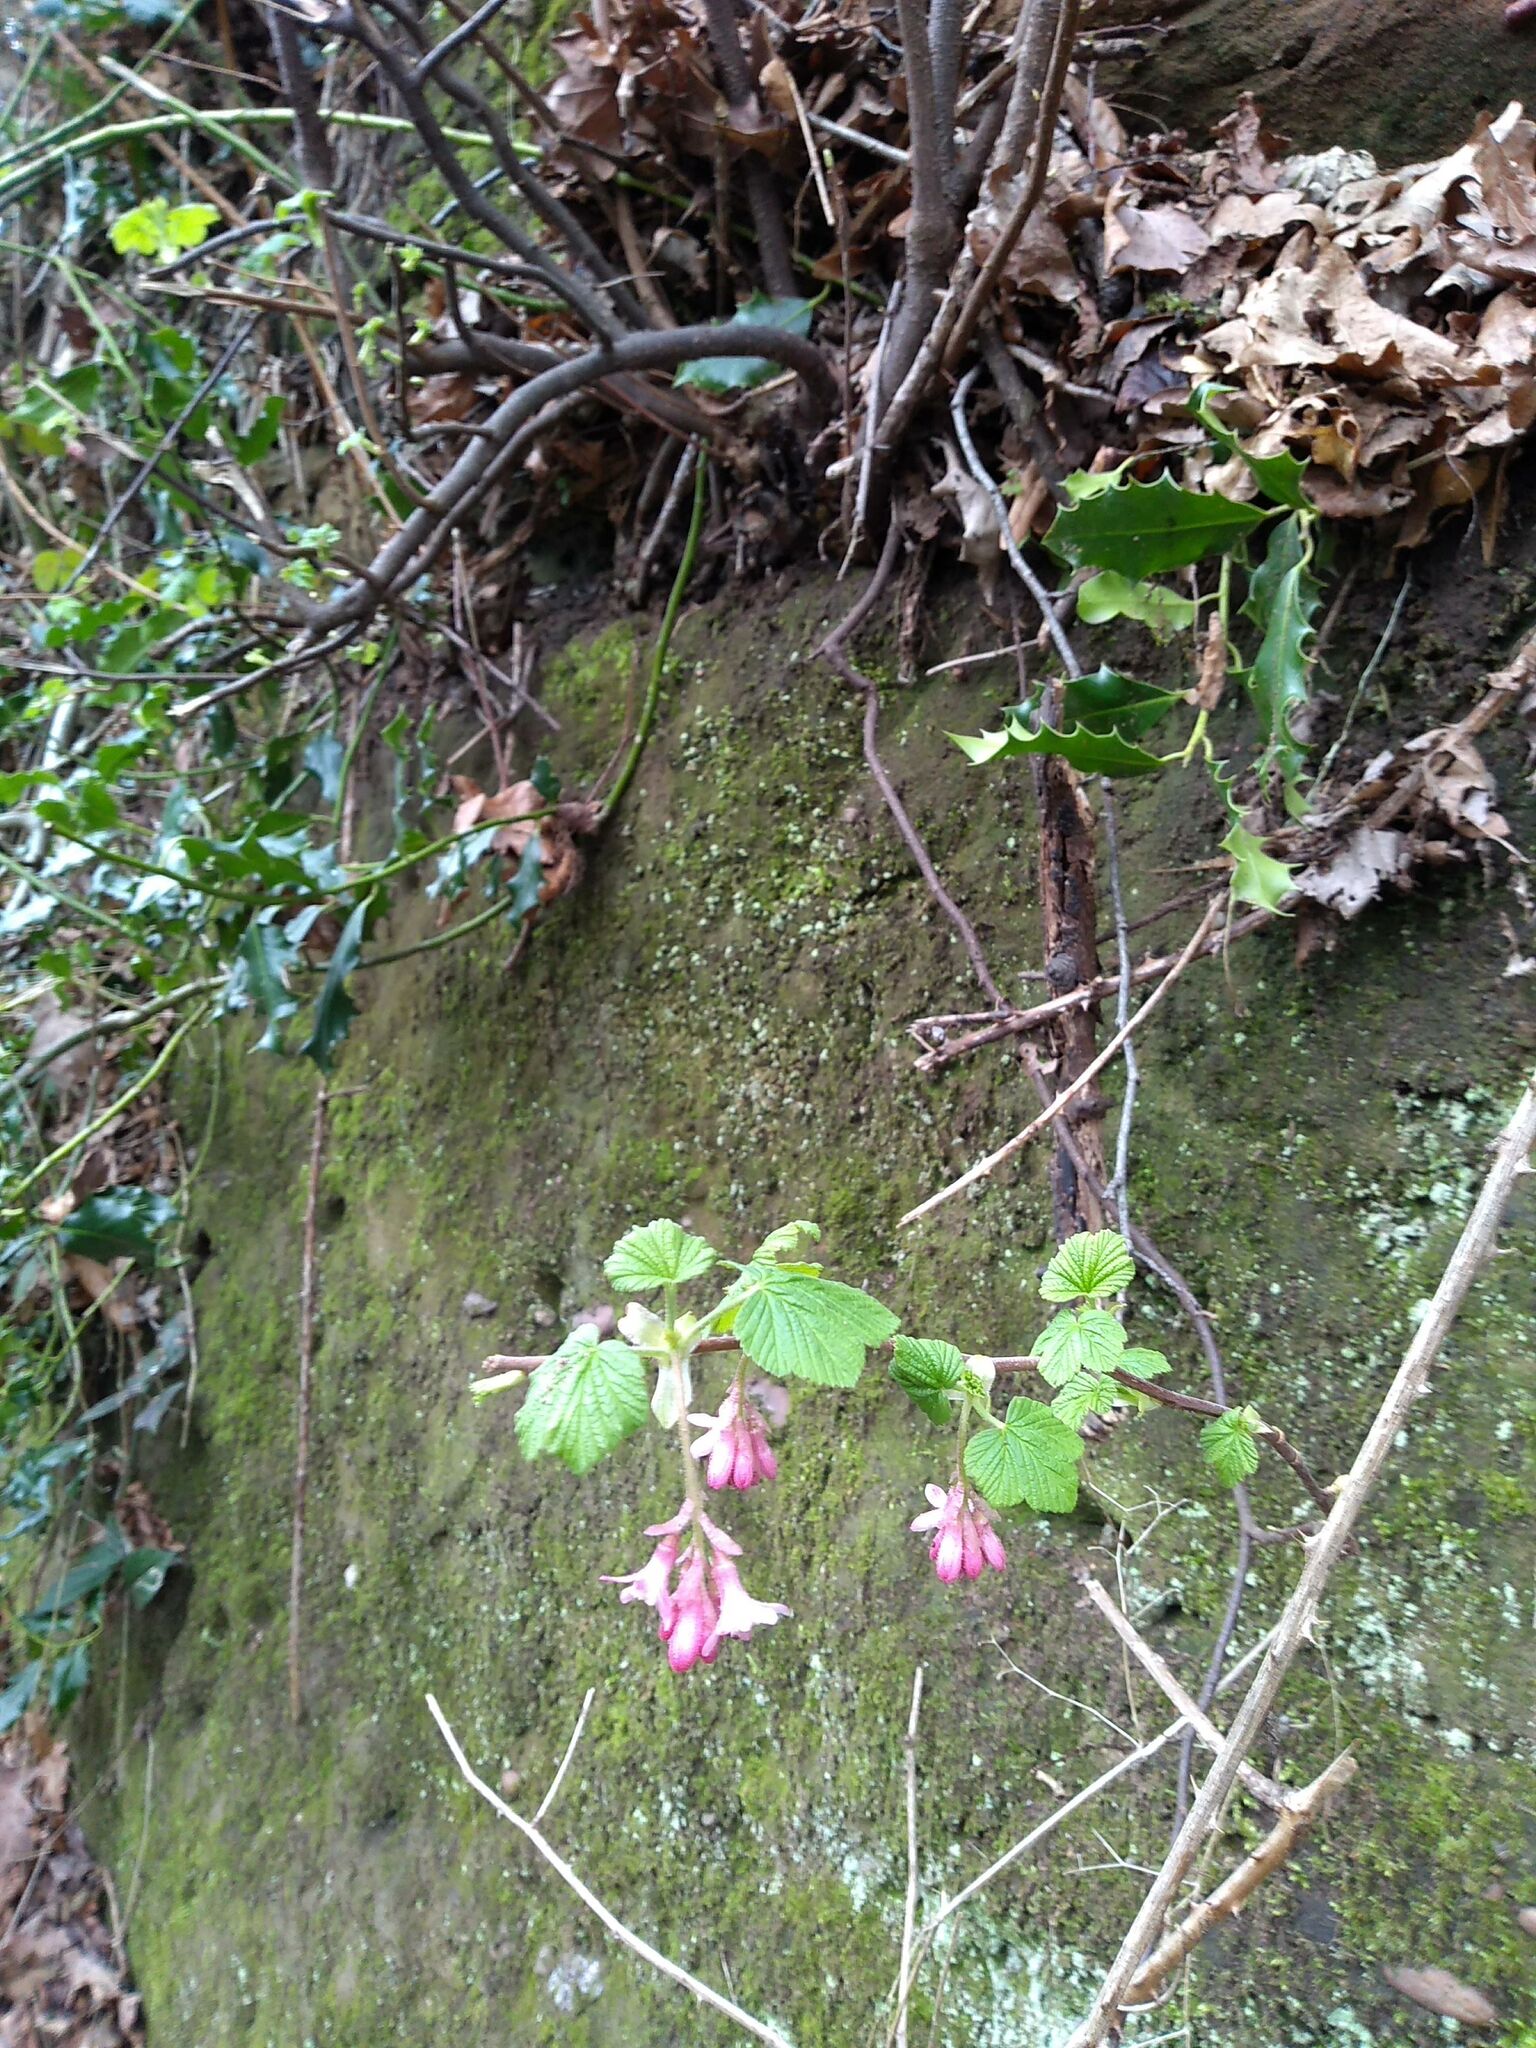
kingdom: Plantae
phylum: Tracheophyta
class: Magnoliopsida
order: Saxifragales
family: Grossulariaceae
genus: Ribes
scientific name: Ribes sanguineum
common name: Flowering currant
